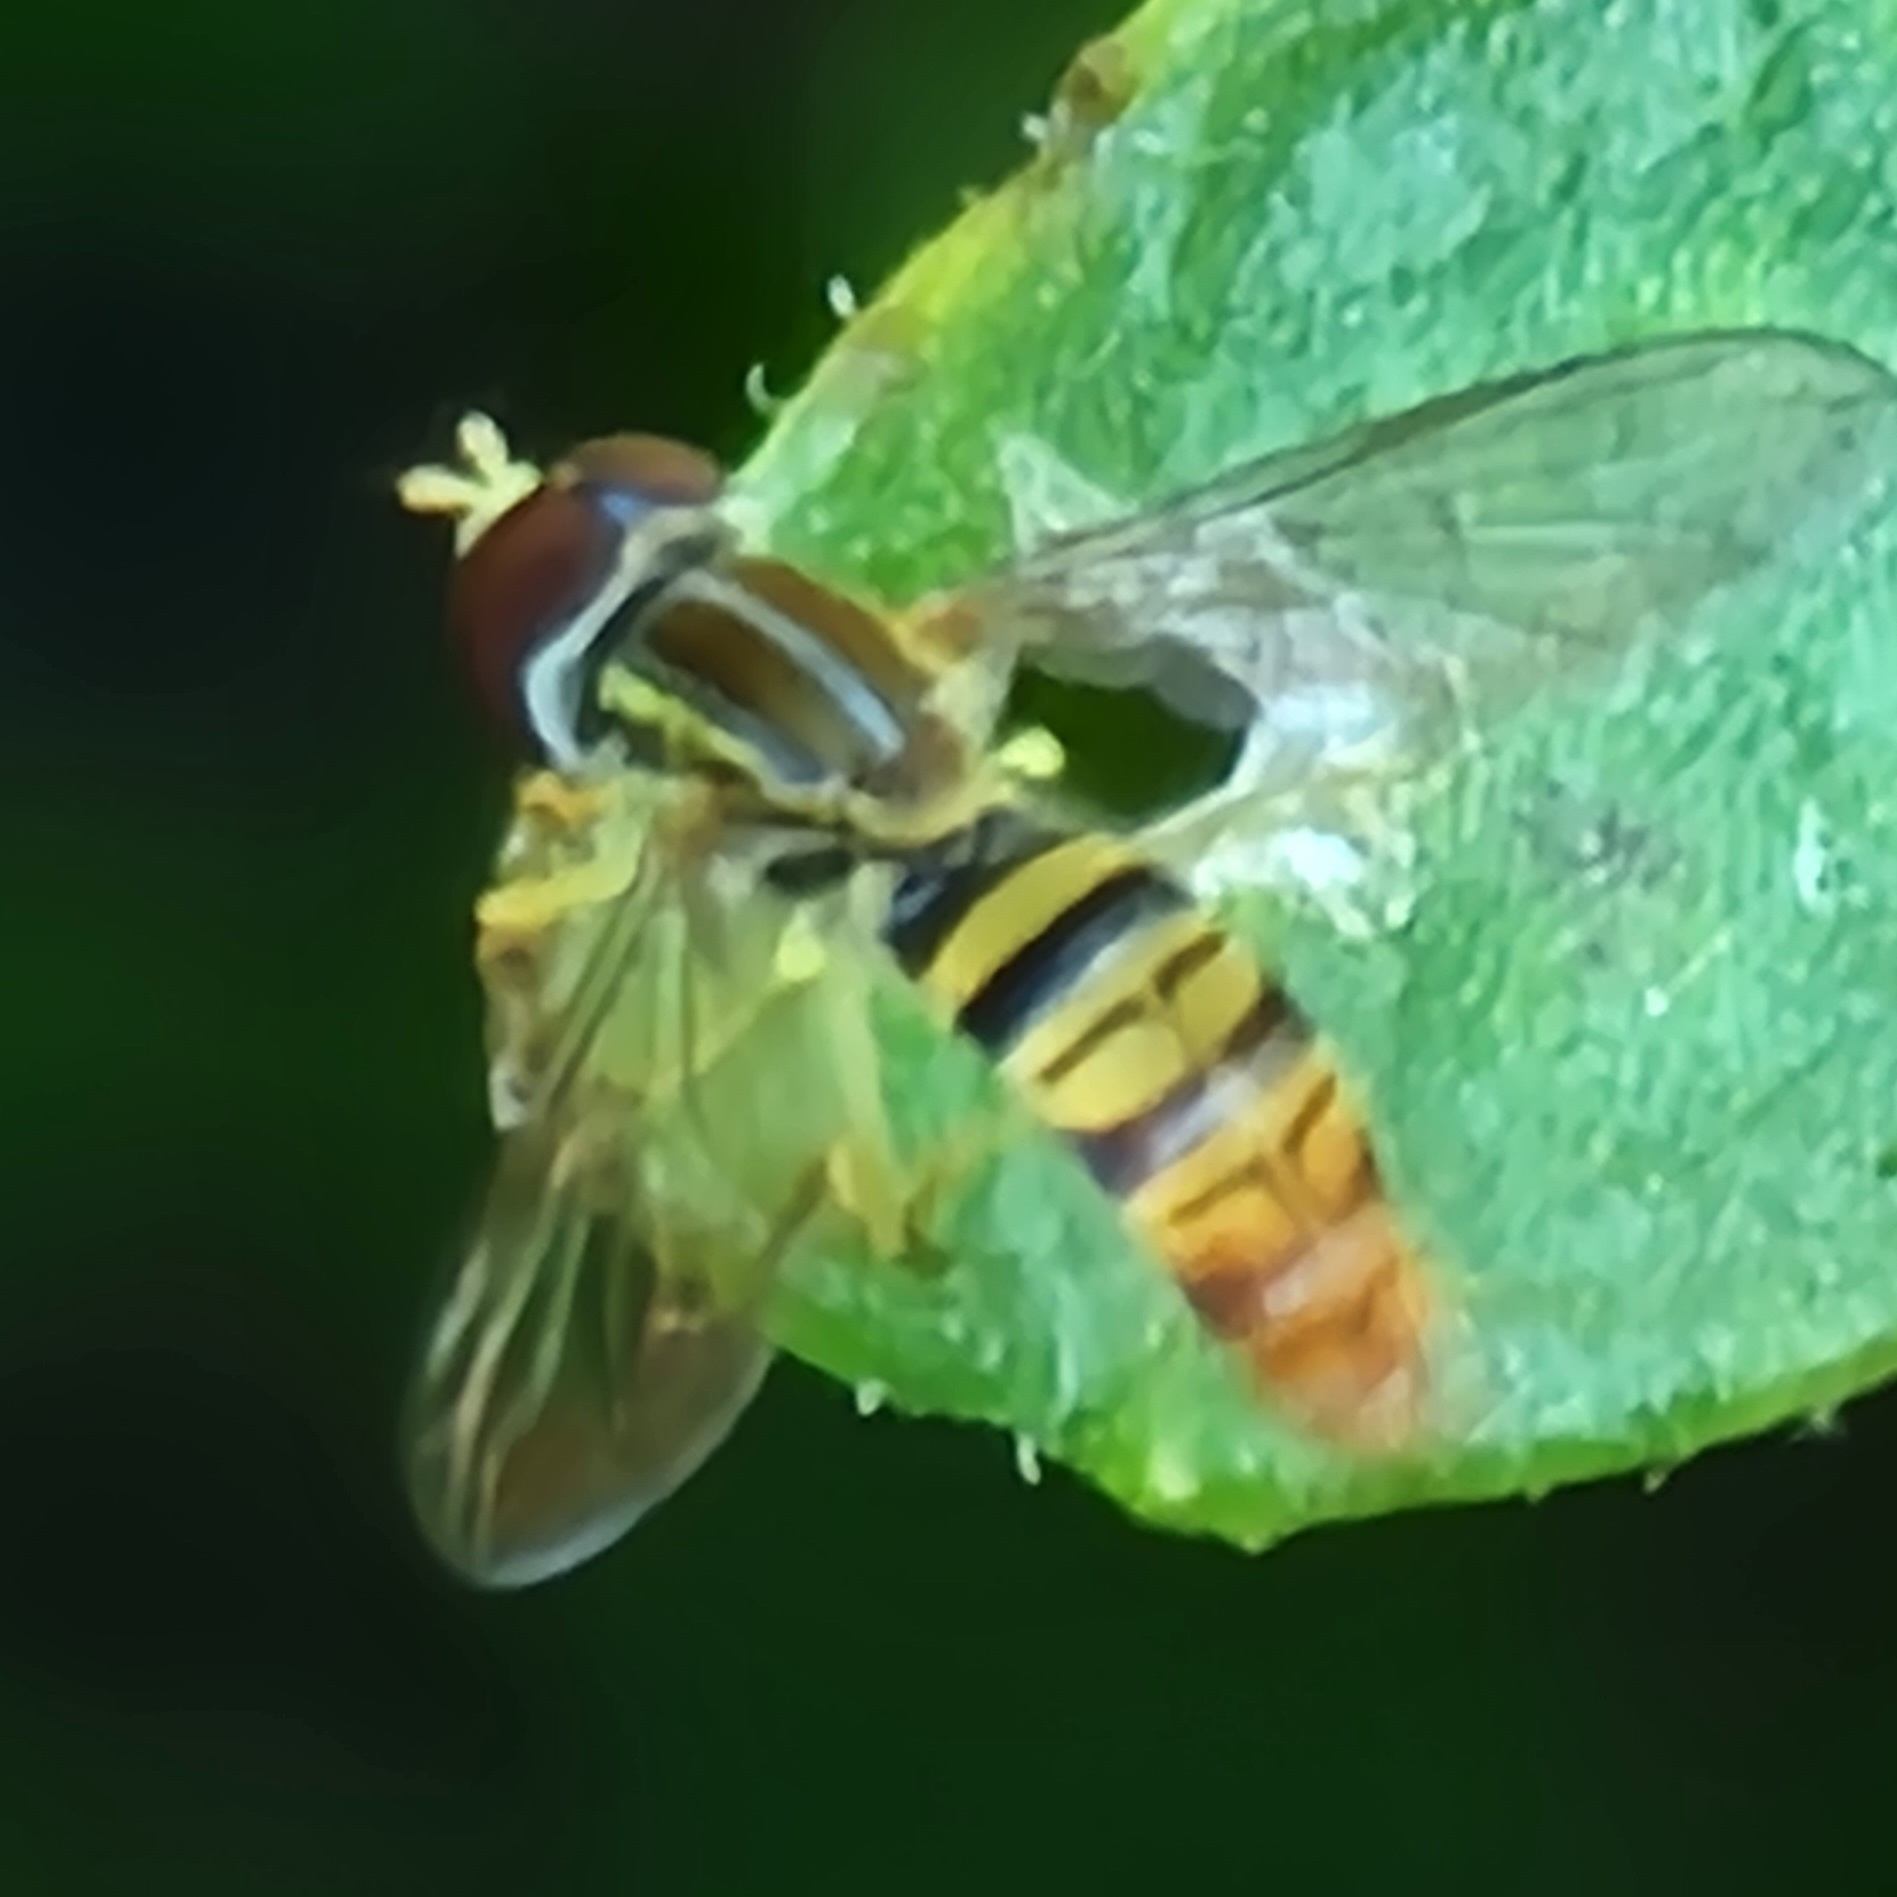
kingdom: Animalia
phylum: Arthropoda
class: Insecta
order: Diptera
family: Syrphidae
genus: Toxomerus
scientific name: Toxomerus politus
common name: Maize calligrapher
